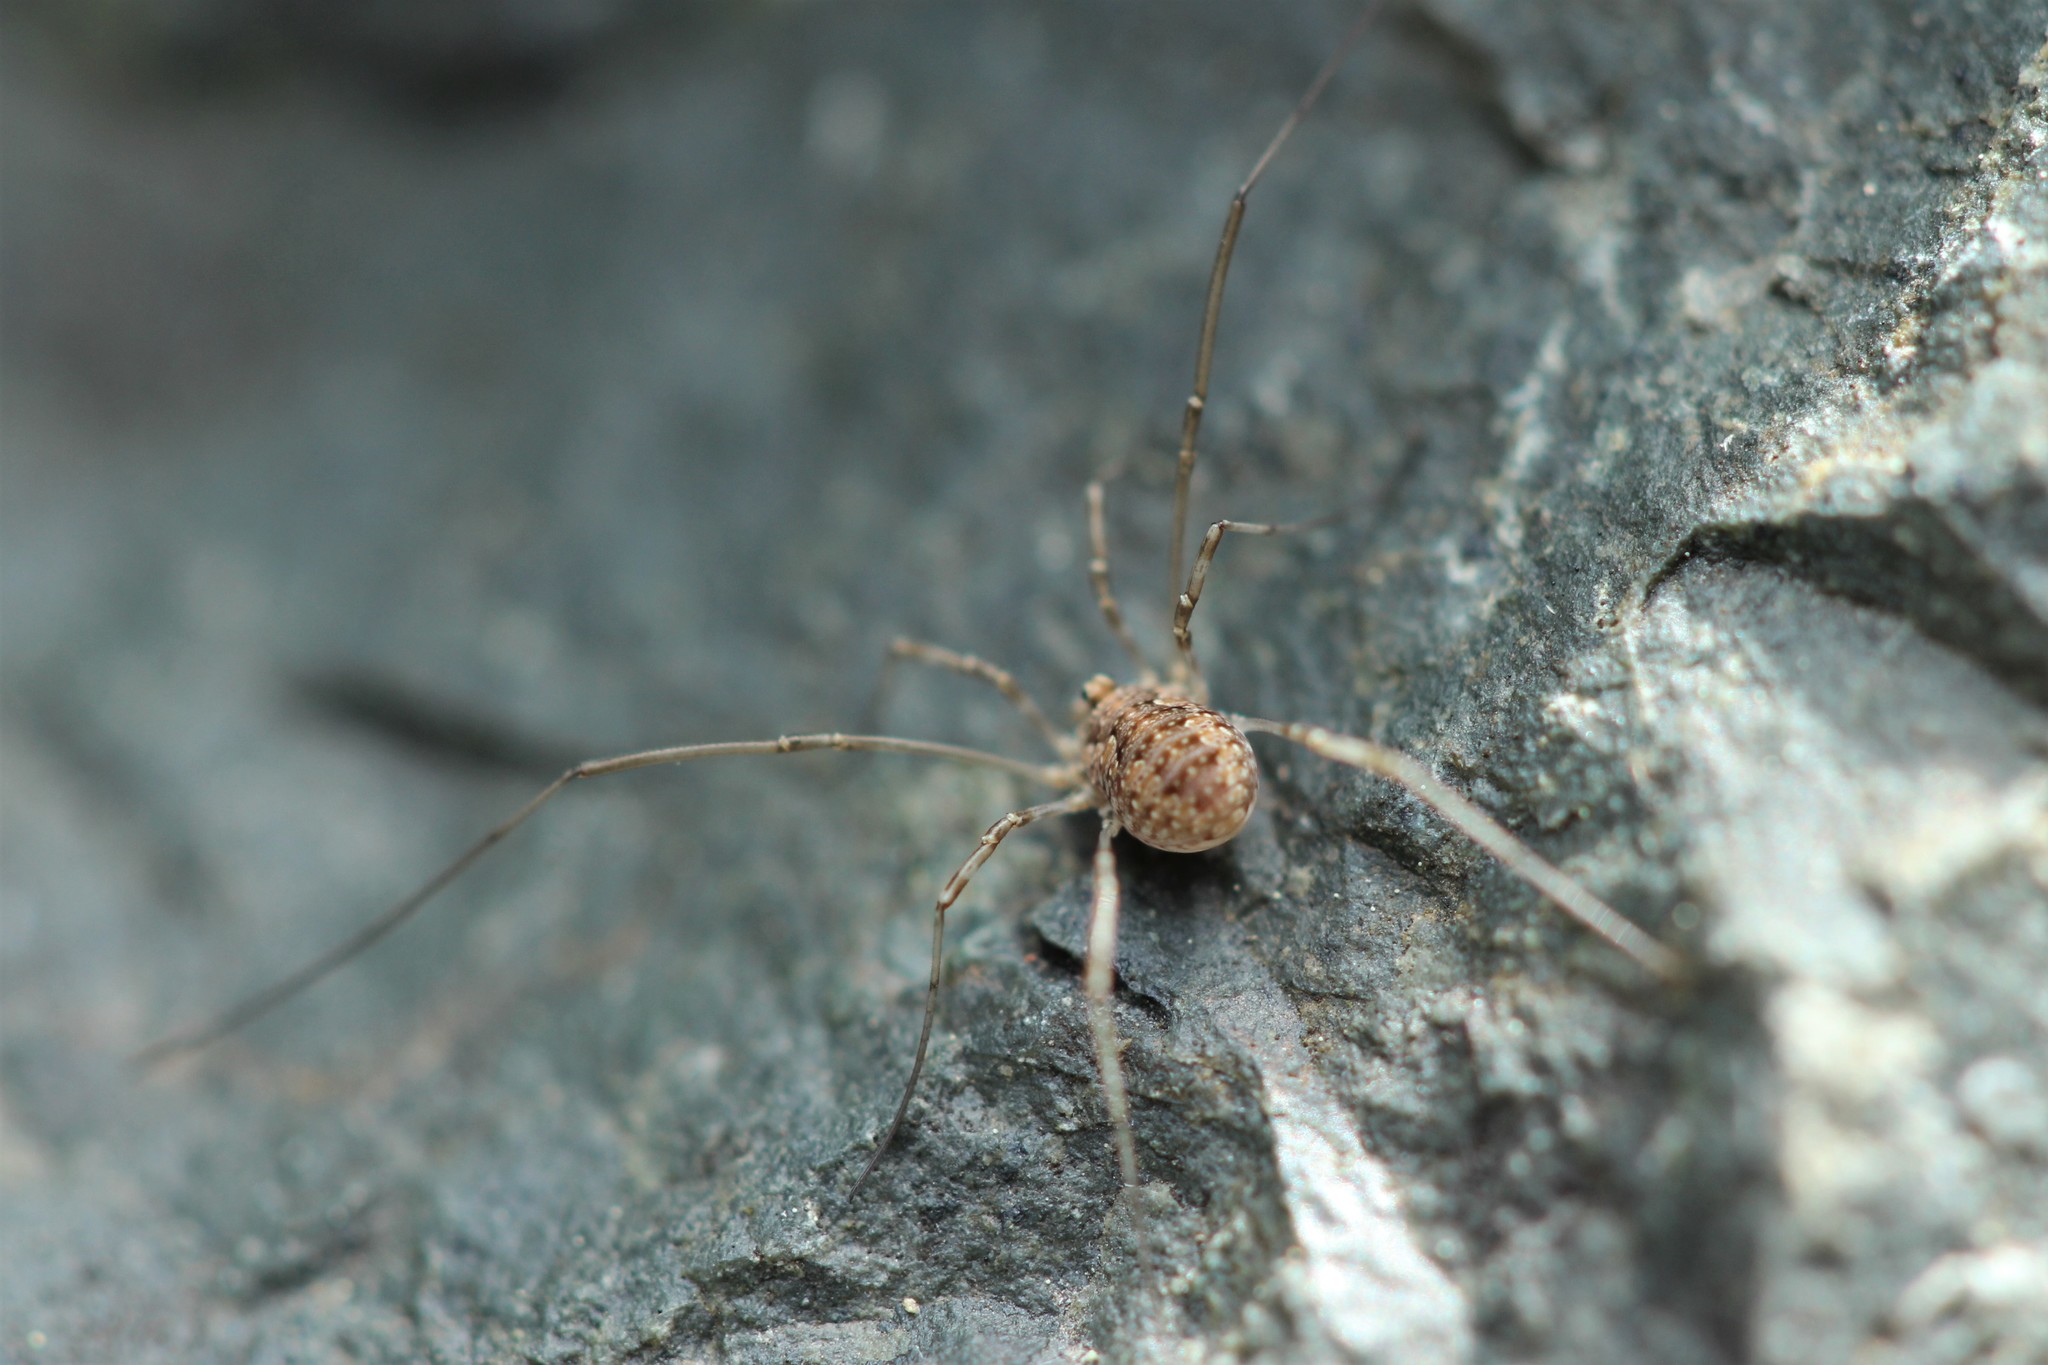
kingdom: Animalia
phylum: Arthropoda
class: Arachnida
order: Opiliones
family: Phalangiidae
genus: Phalangium
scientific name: Phalangium opilio
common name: Daddy longleg
